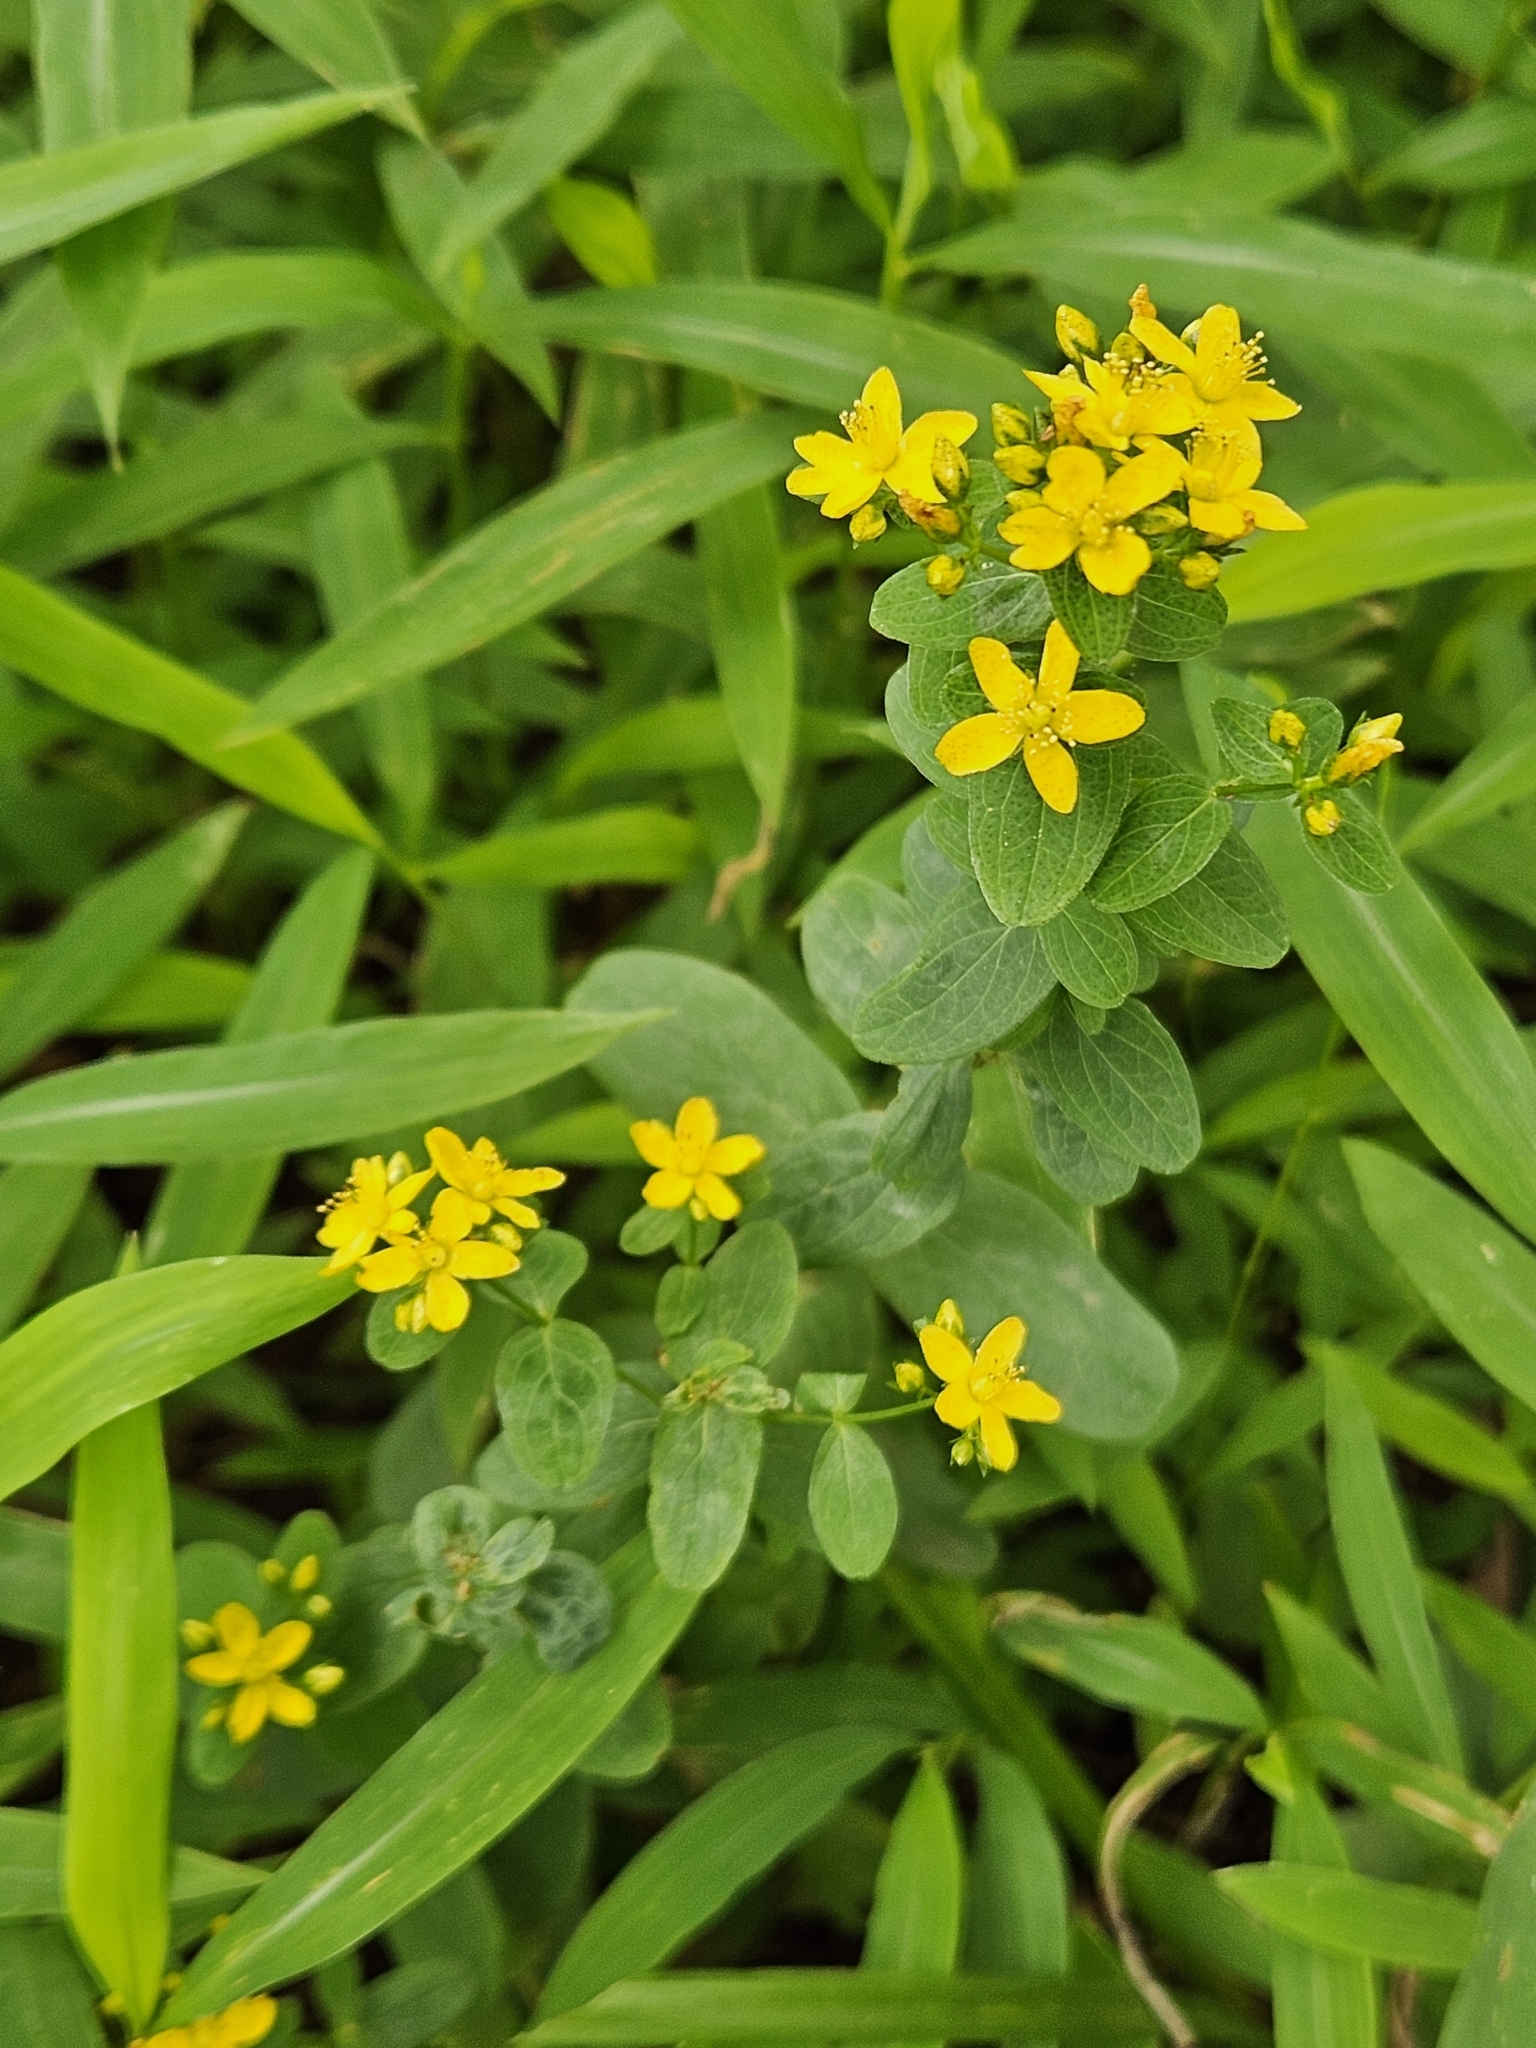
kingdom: Plantae
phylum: Tracheophyta
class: Magnoliopsida
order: Malpighiales
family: Hypericaceae
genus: Hypericum
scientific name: Hypericum punctatum
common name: Spotted st. john's-wort
